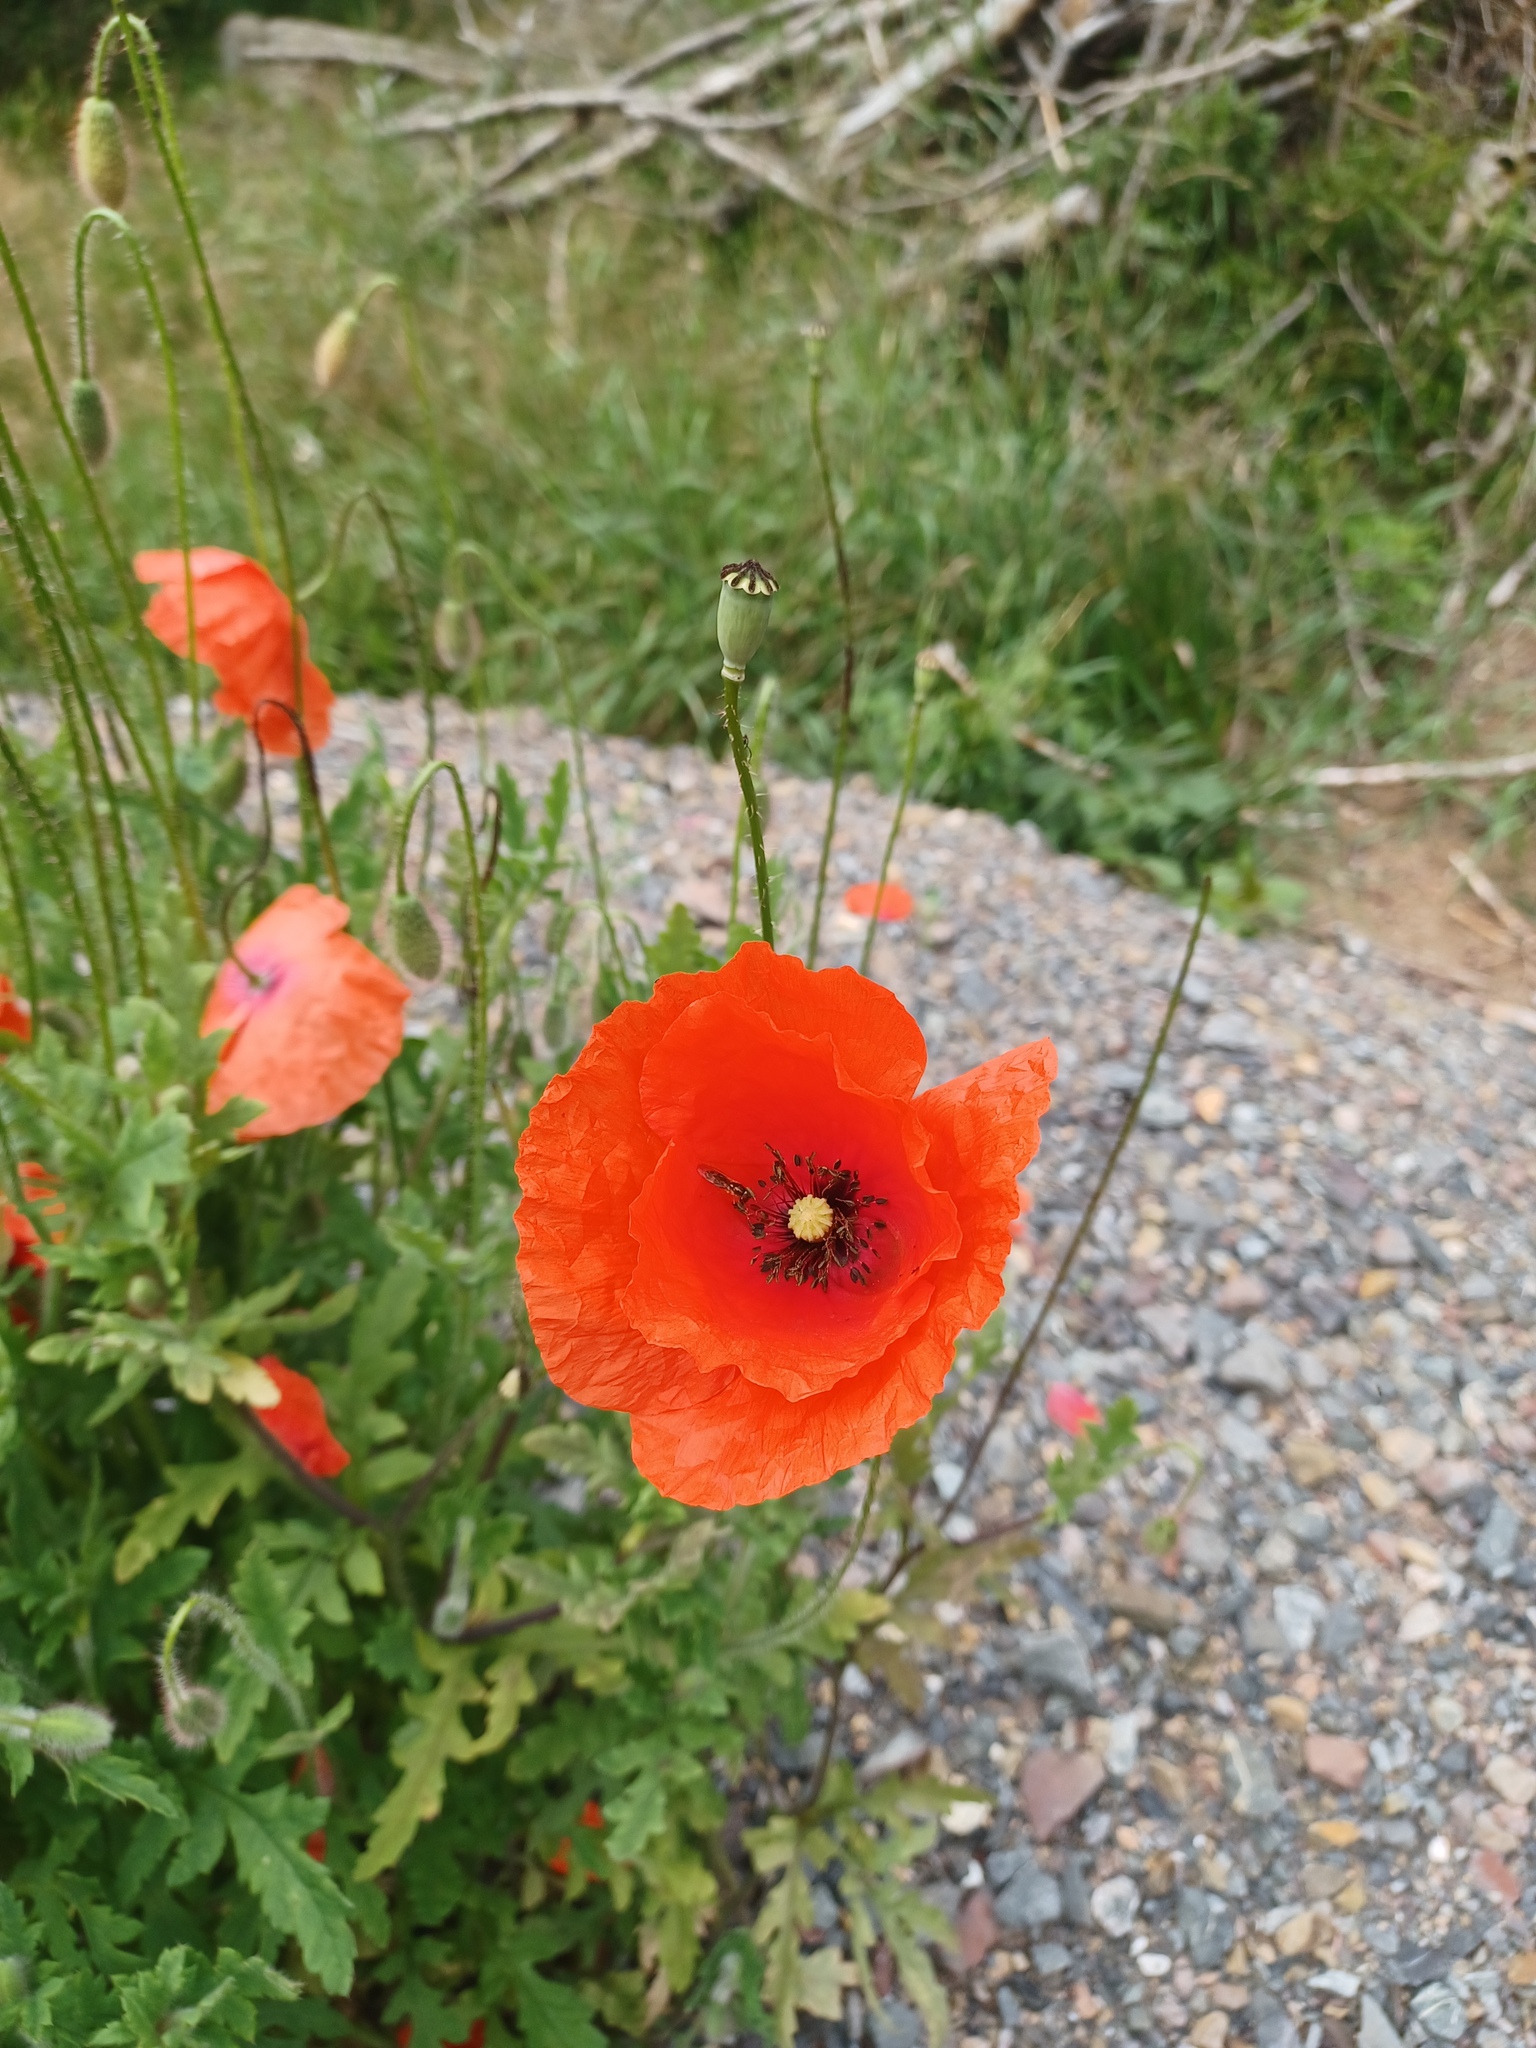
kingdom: Plantae
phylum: Tracheophyta
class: Magnoliopsida
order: Ranunculales
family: Papaveraceae
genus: Papaver
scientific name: Papaver rhoeas
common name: Corn poppy
